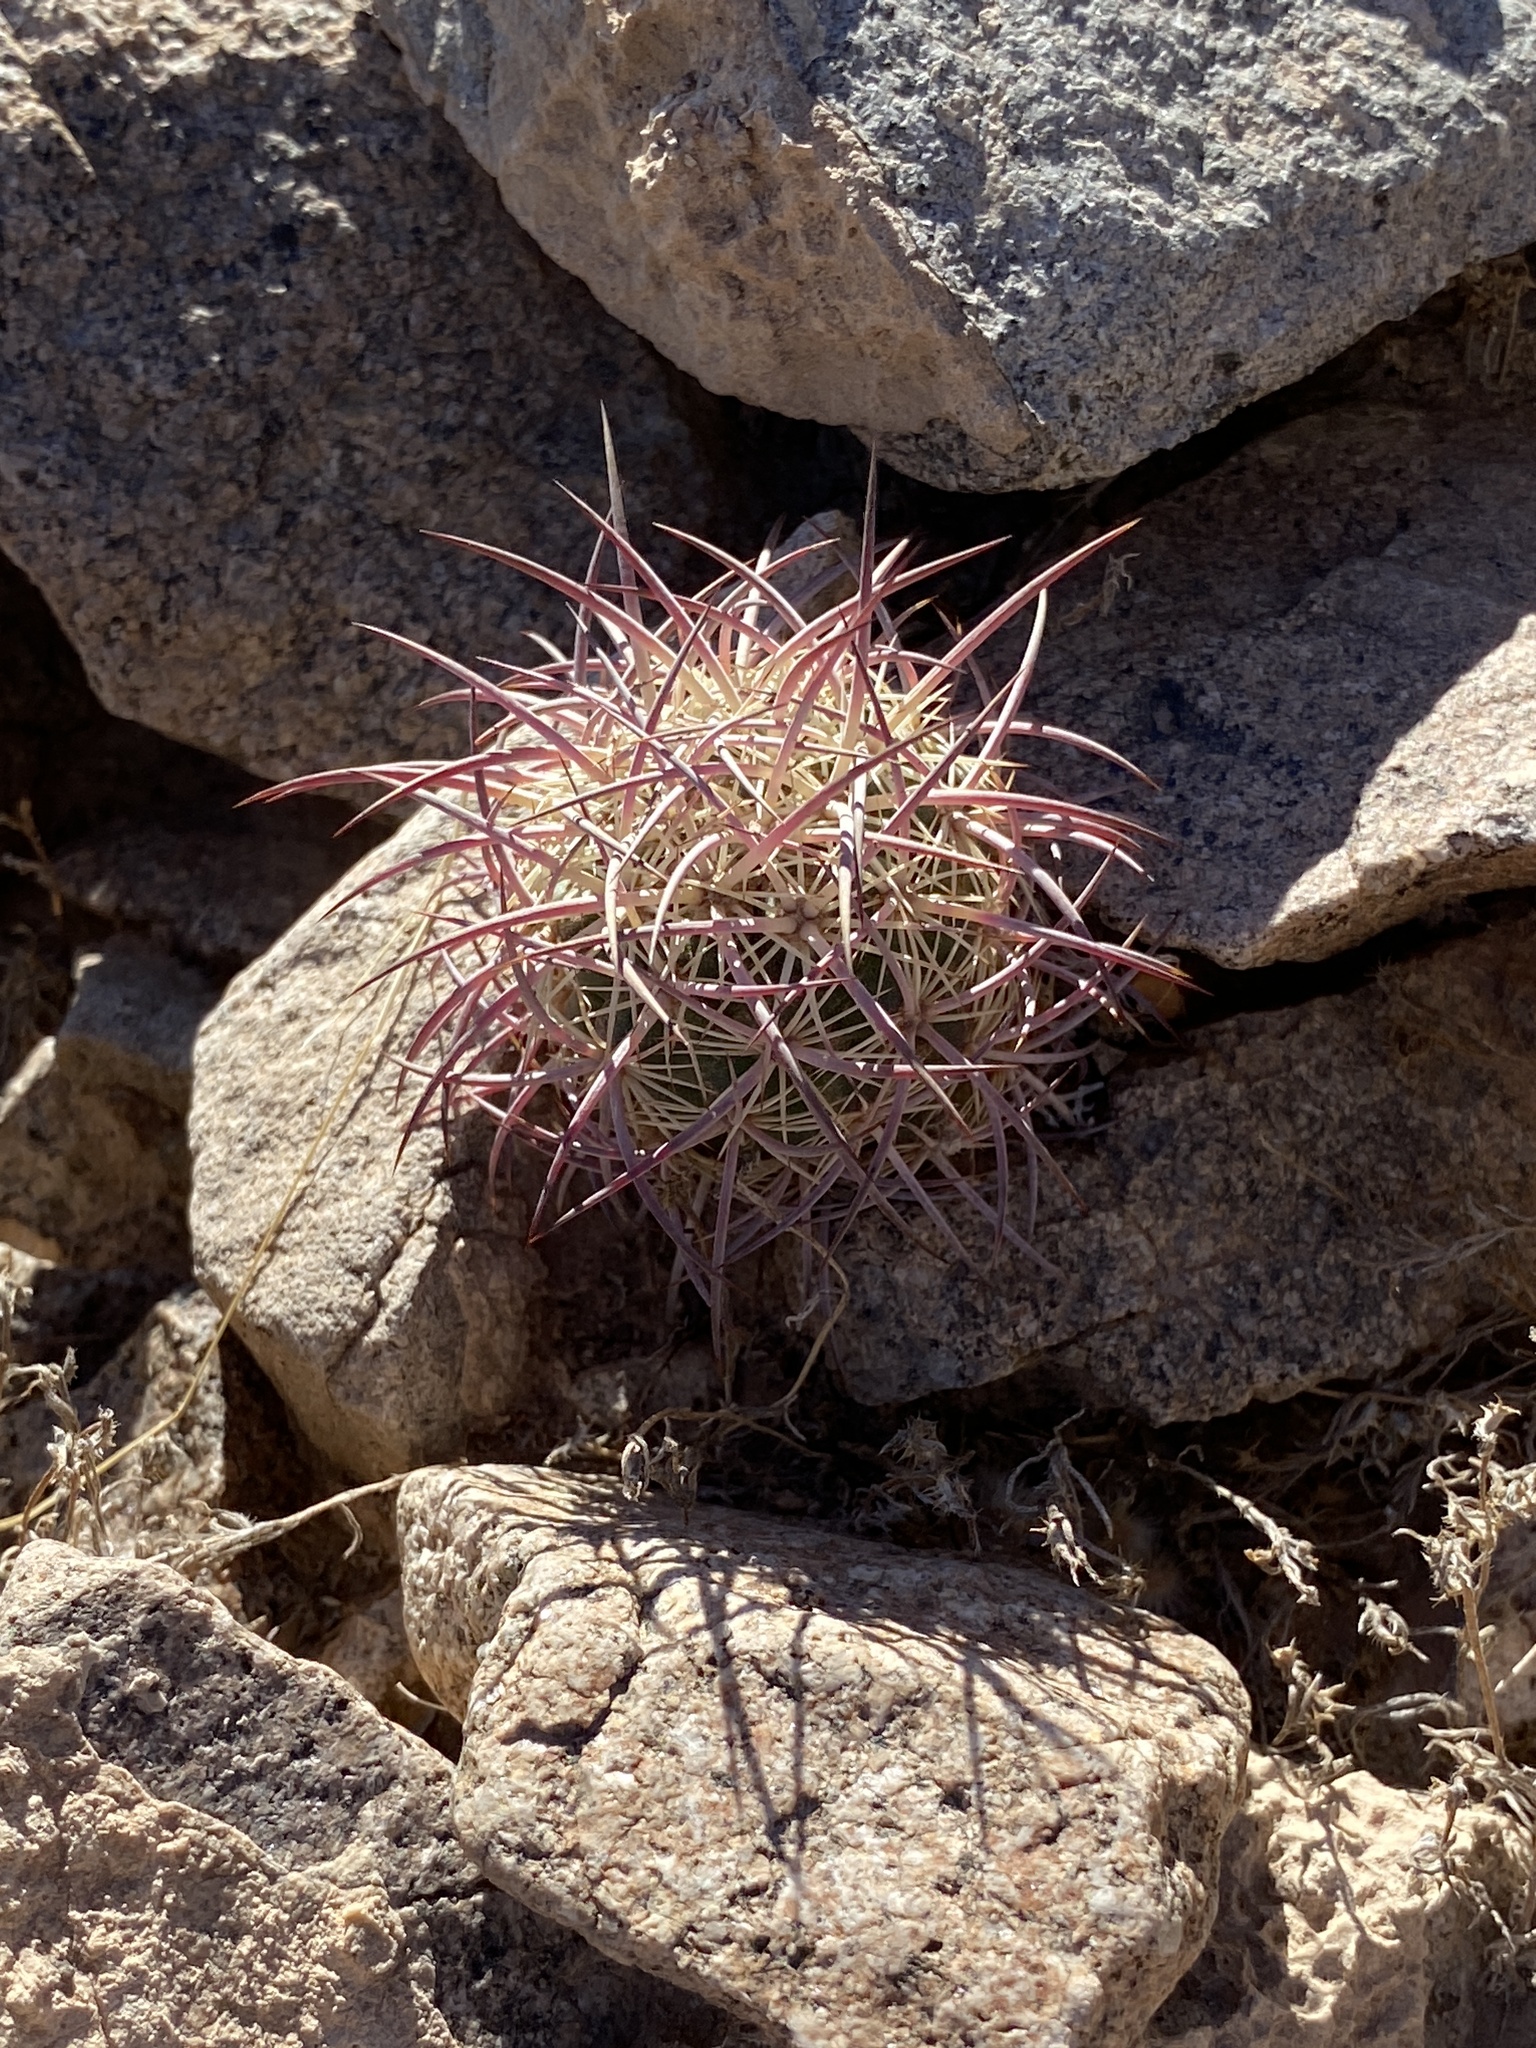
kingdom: Plantae
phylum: Tracheophyta
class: Magnoliopsida
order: Caryophyllales
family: Cactaceae
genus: Sclerocactus
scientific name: Sclerocactus johnsonii
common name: Eight-spine fishhook cactus
